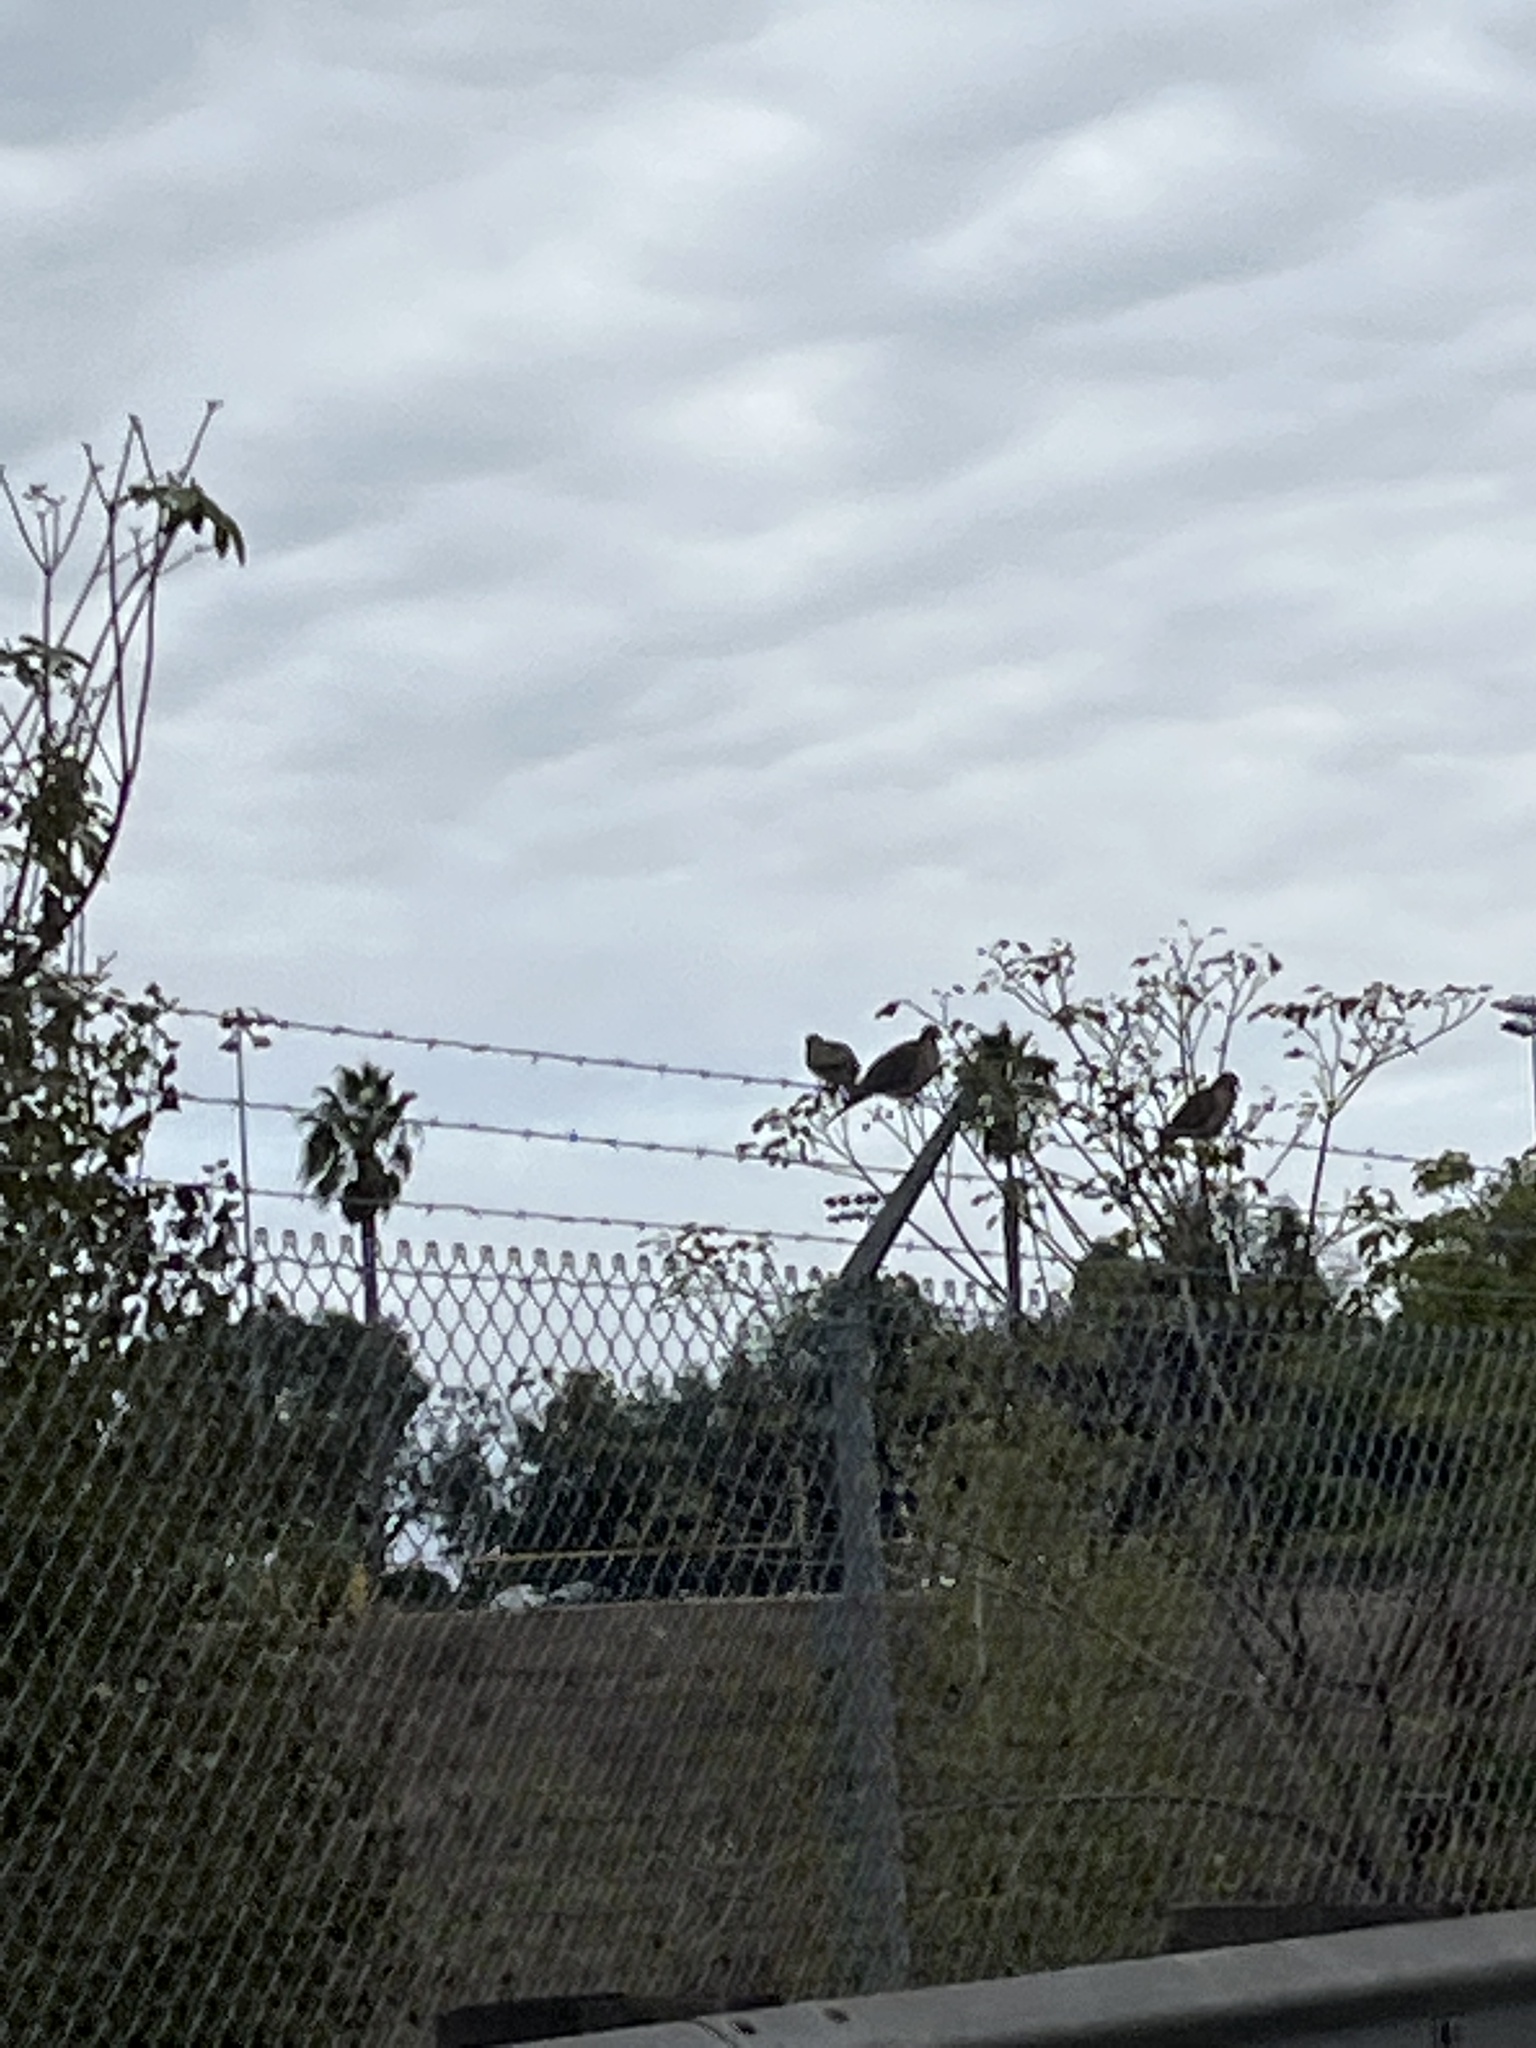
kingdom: Animalia
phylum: Chordata
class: Aves
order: Columbiformes
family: Columbidae
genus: Zenaida
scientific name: Zenaida macroura
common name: Mourning dove
